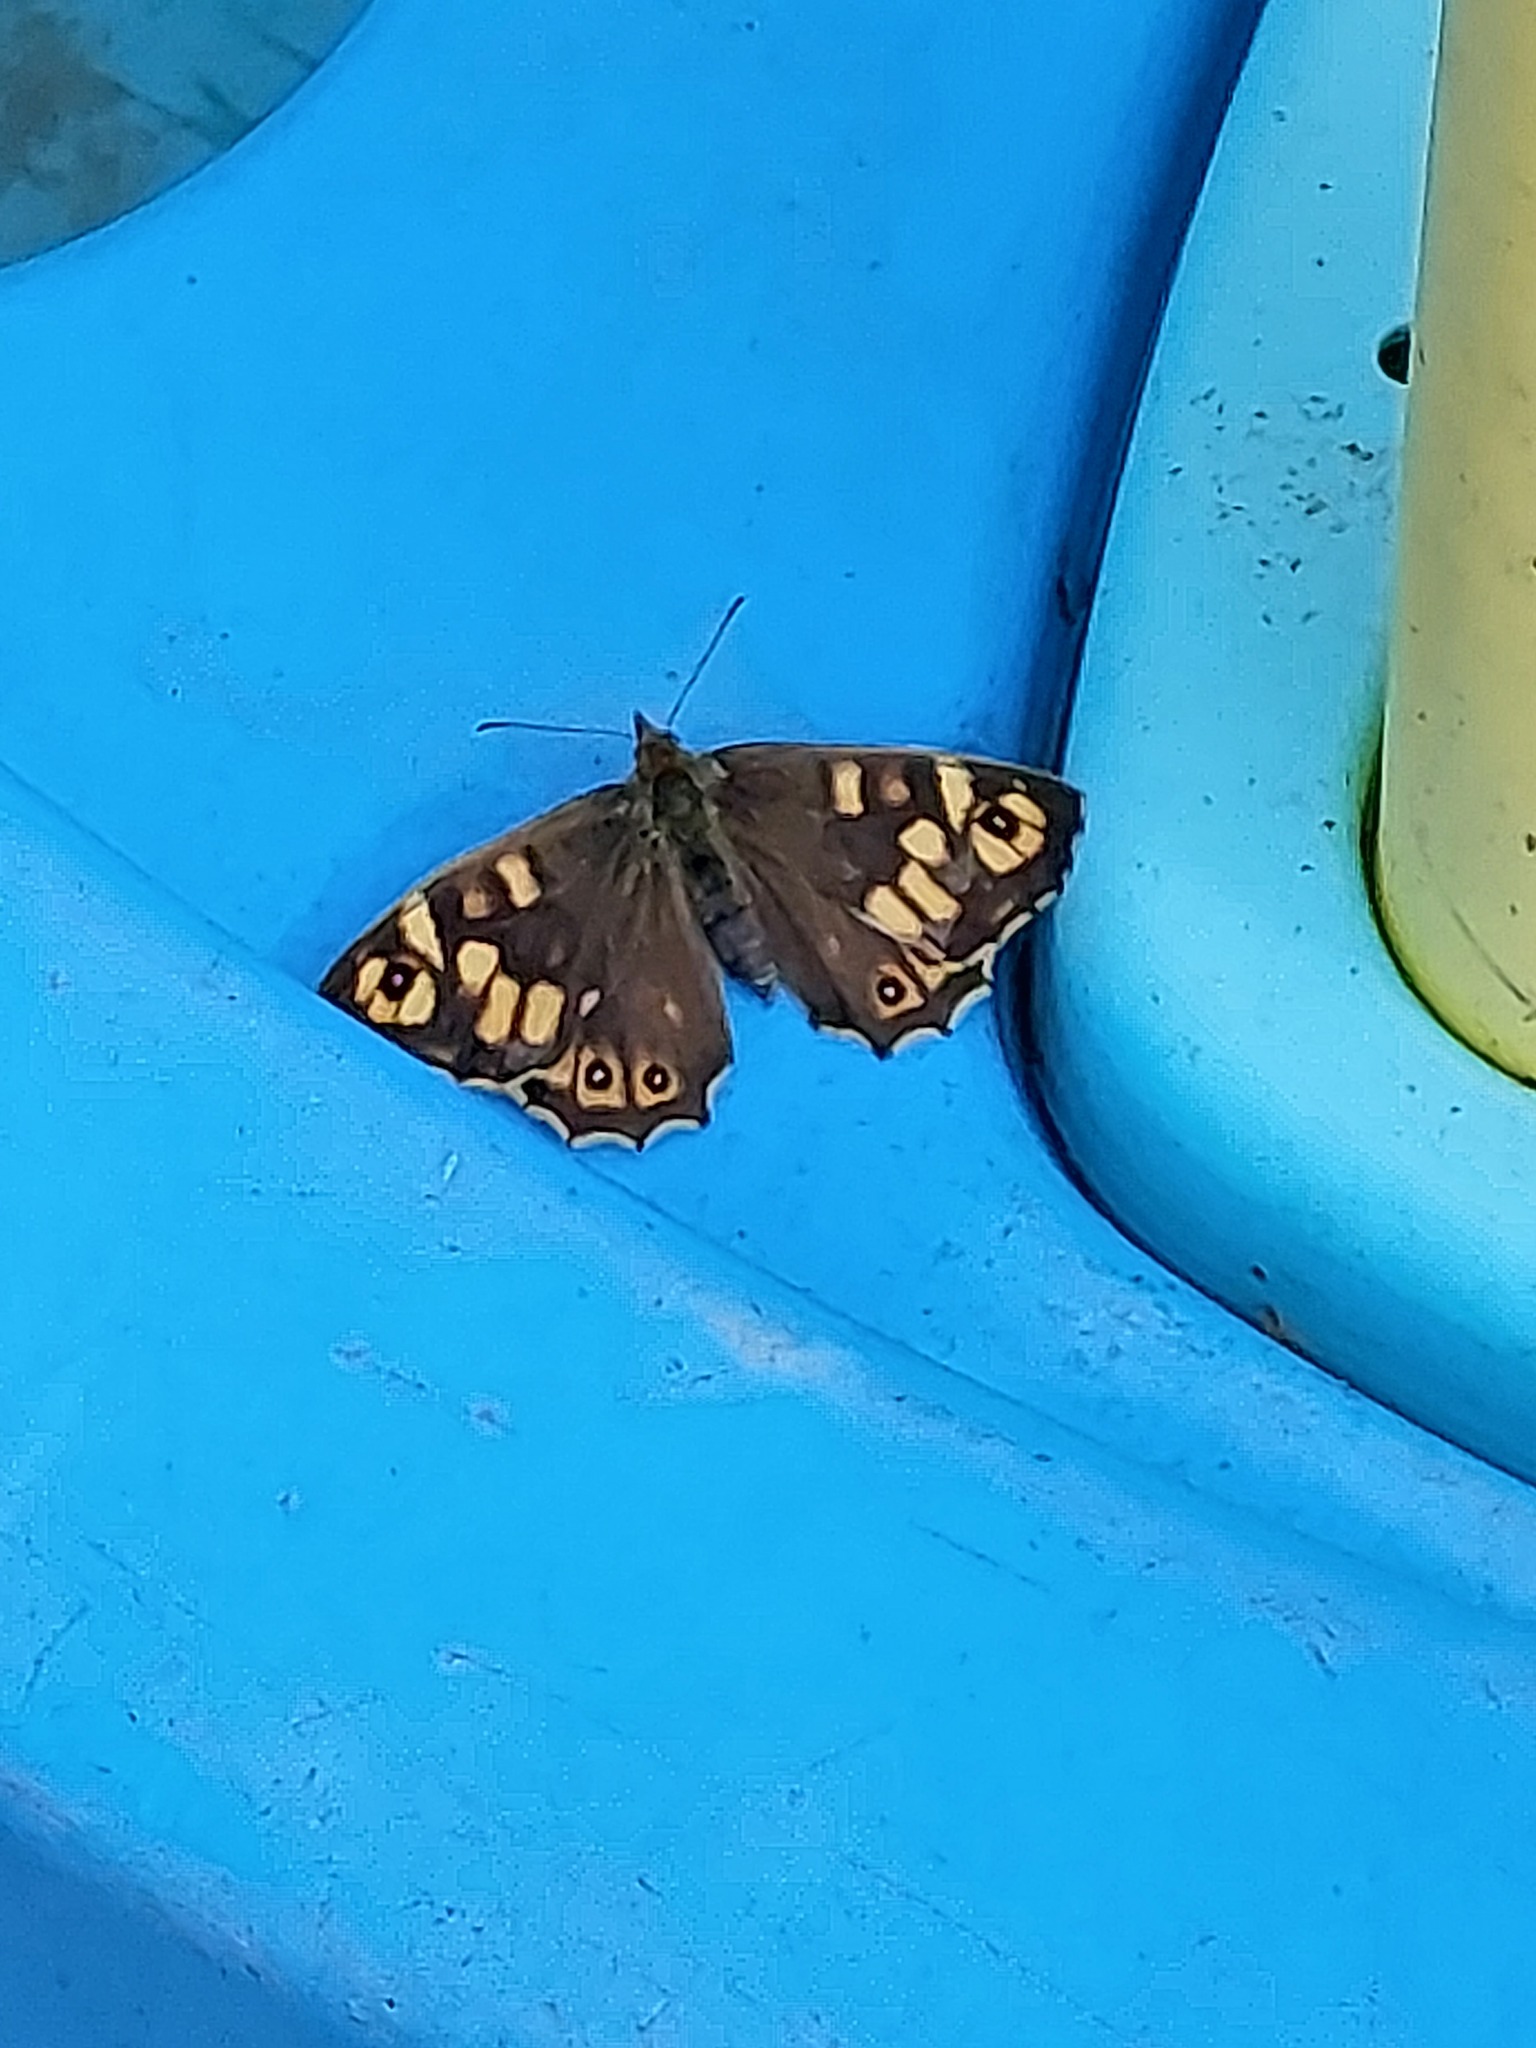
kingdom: Animalia
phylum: Arthropoda
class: Insecta
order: Lepidoptera
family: Nymphalidae
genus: Pararge
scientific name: Pararge aegeria
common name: Speckled wood
